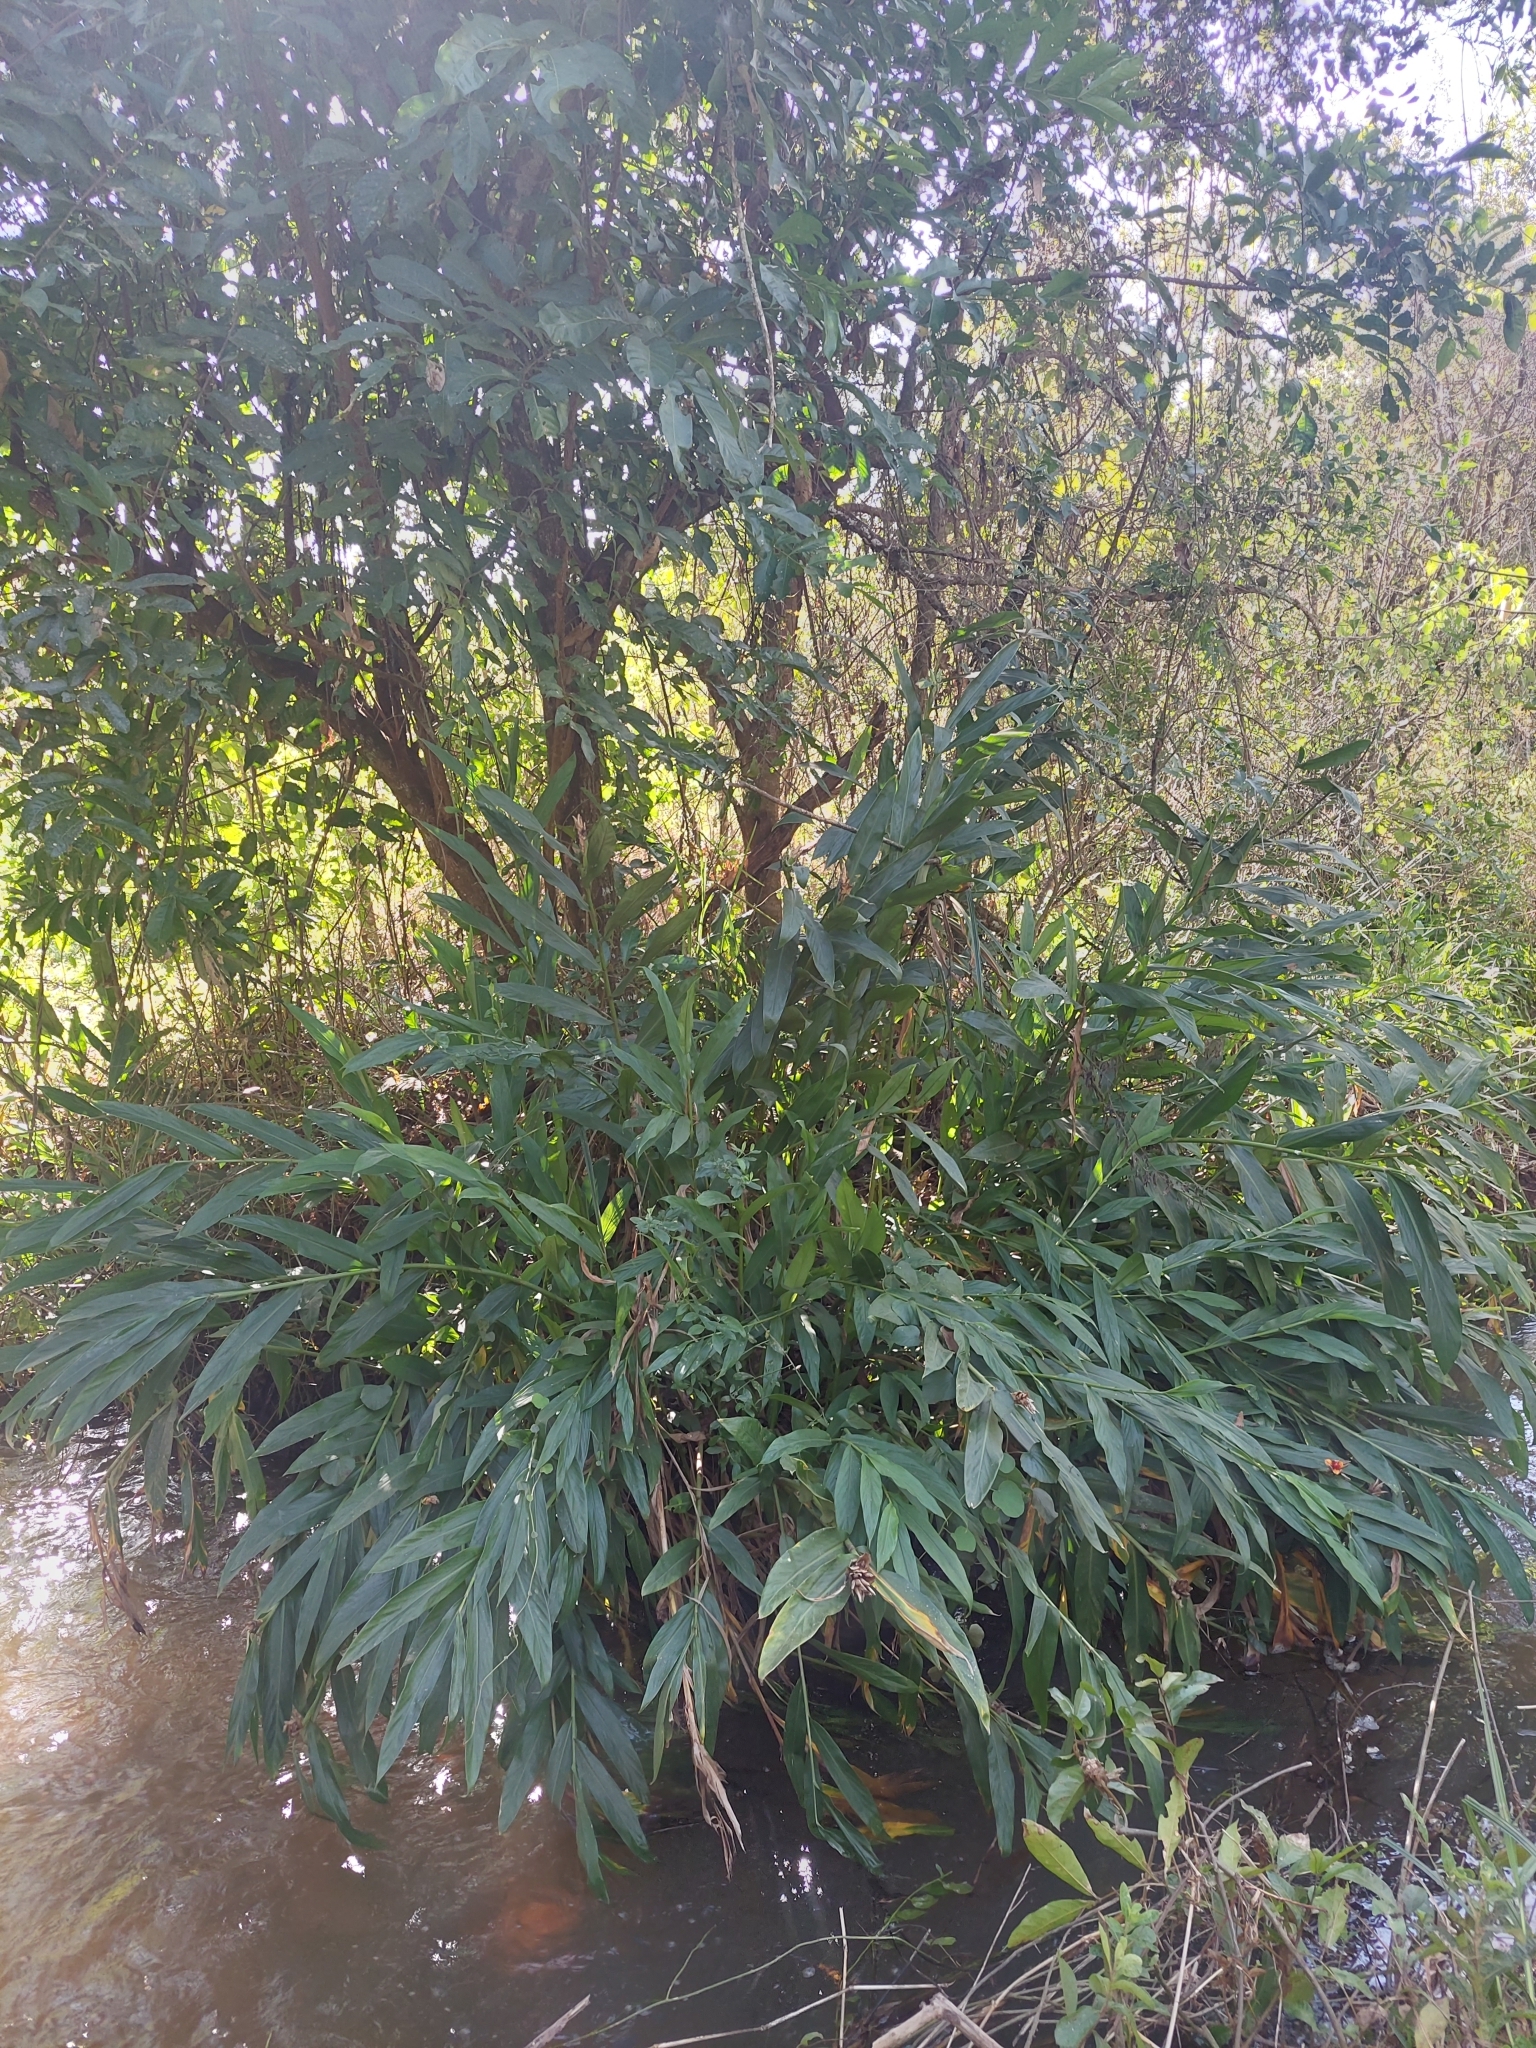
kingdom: Plantae
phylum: Tracheophyta
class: Liliopsida
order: Zingiberales
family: Zingiberaceae
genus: Hedychium
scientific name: Hedychium coronarium
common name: White garland-lily
